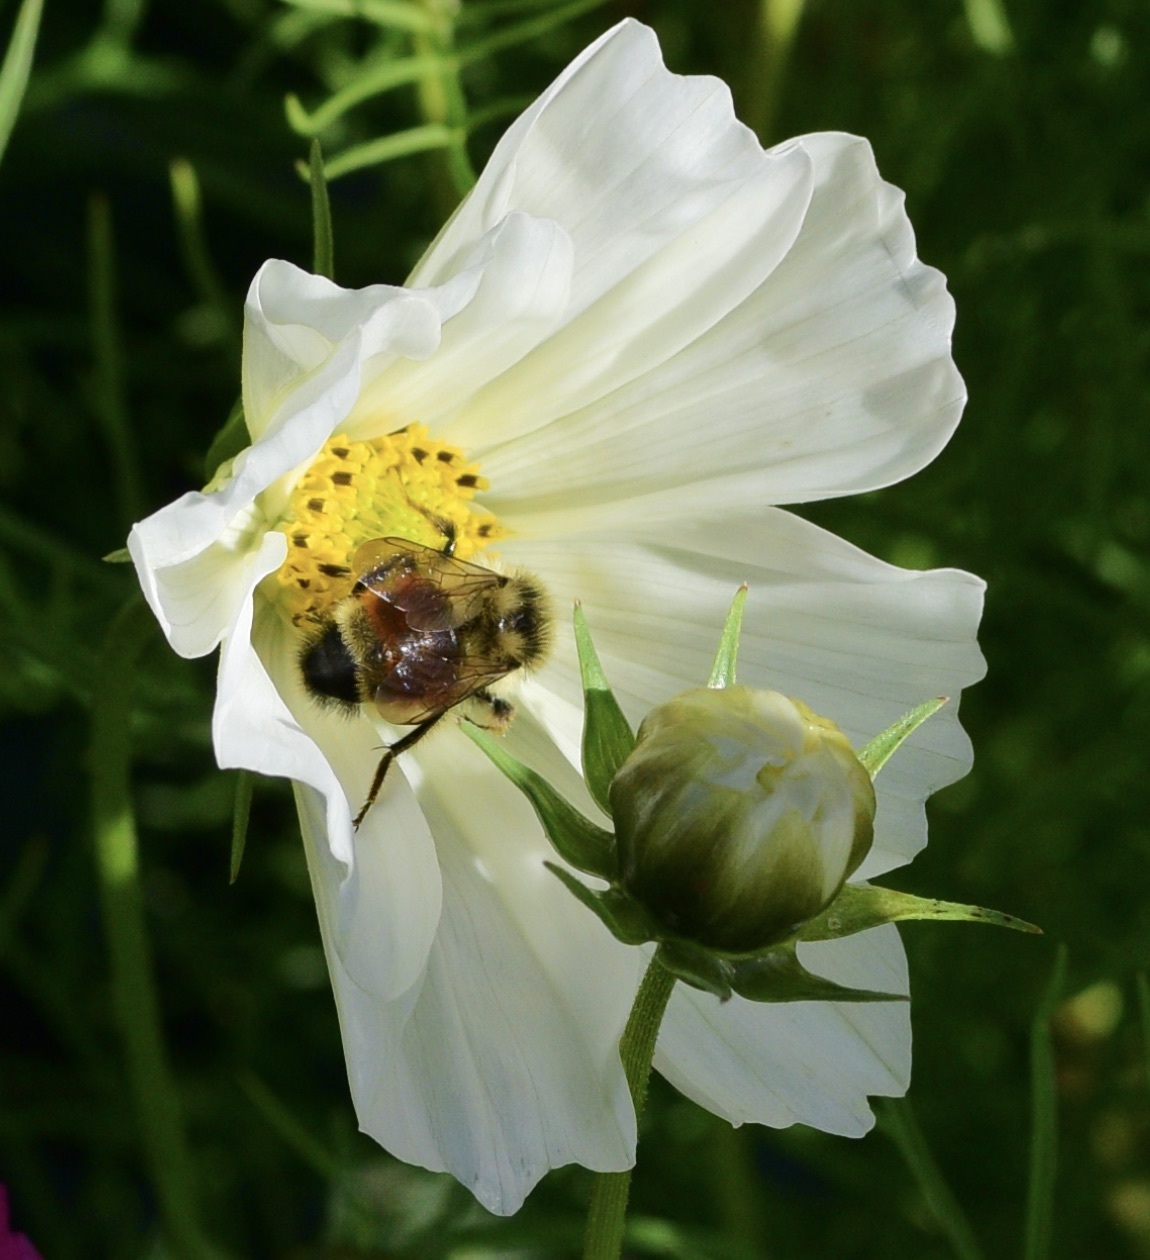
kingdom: Animalia
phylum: Arthropoda
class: Insecta
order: Hymenoptera
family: Apidae
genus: Bombus
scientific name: Bombus ternarius
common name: Tri-colored bumble bee
